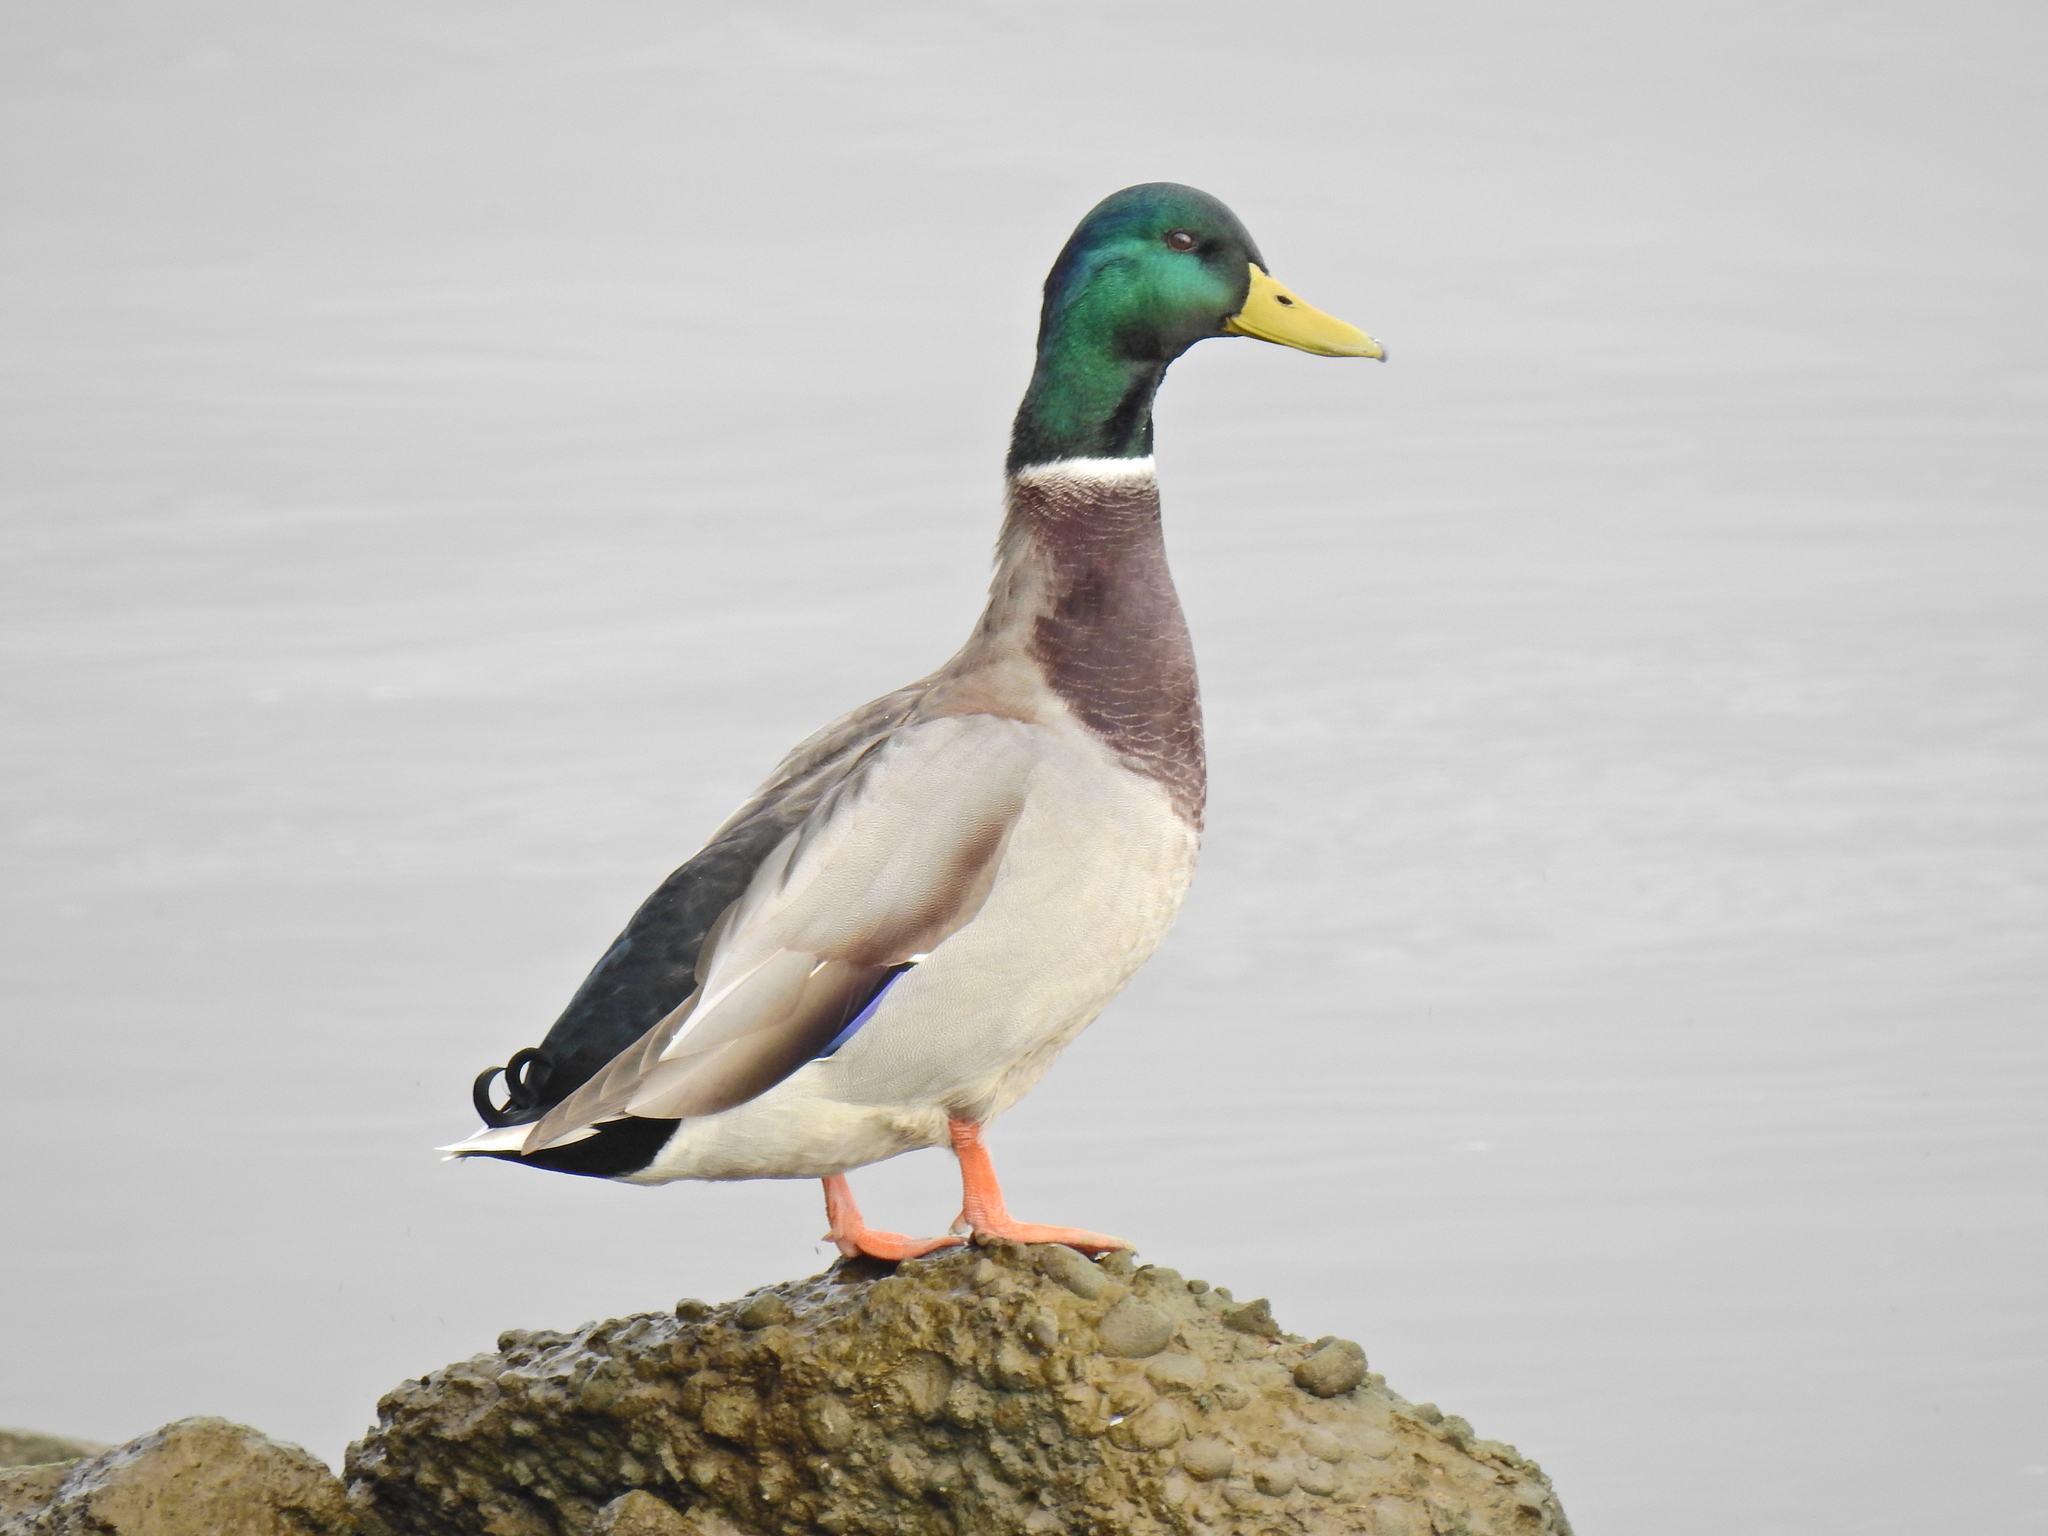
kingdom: Animalia
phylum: Chordata
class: Aves
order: Anseriformes
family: Anatidae
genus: Anas
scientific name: Anas platyrhynchos
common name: Mallard
